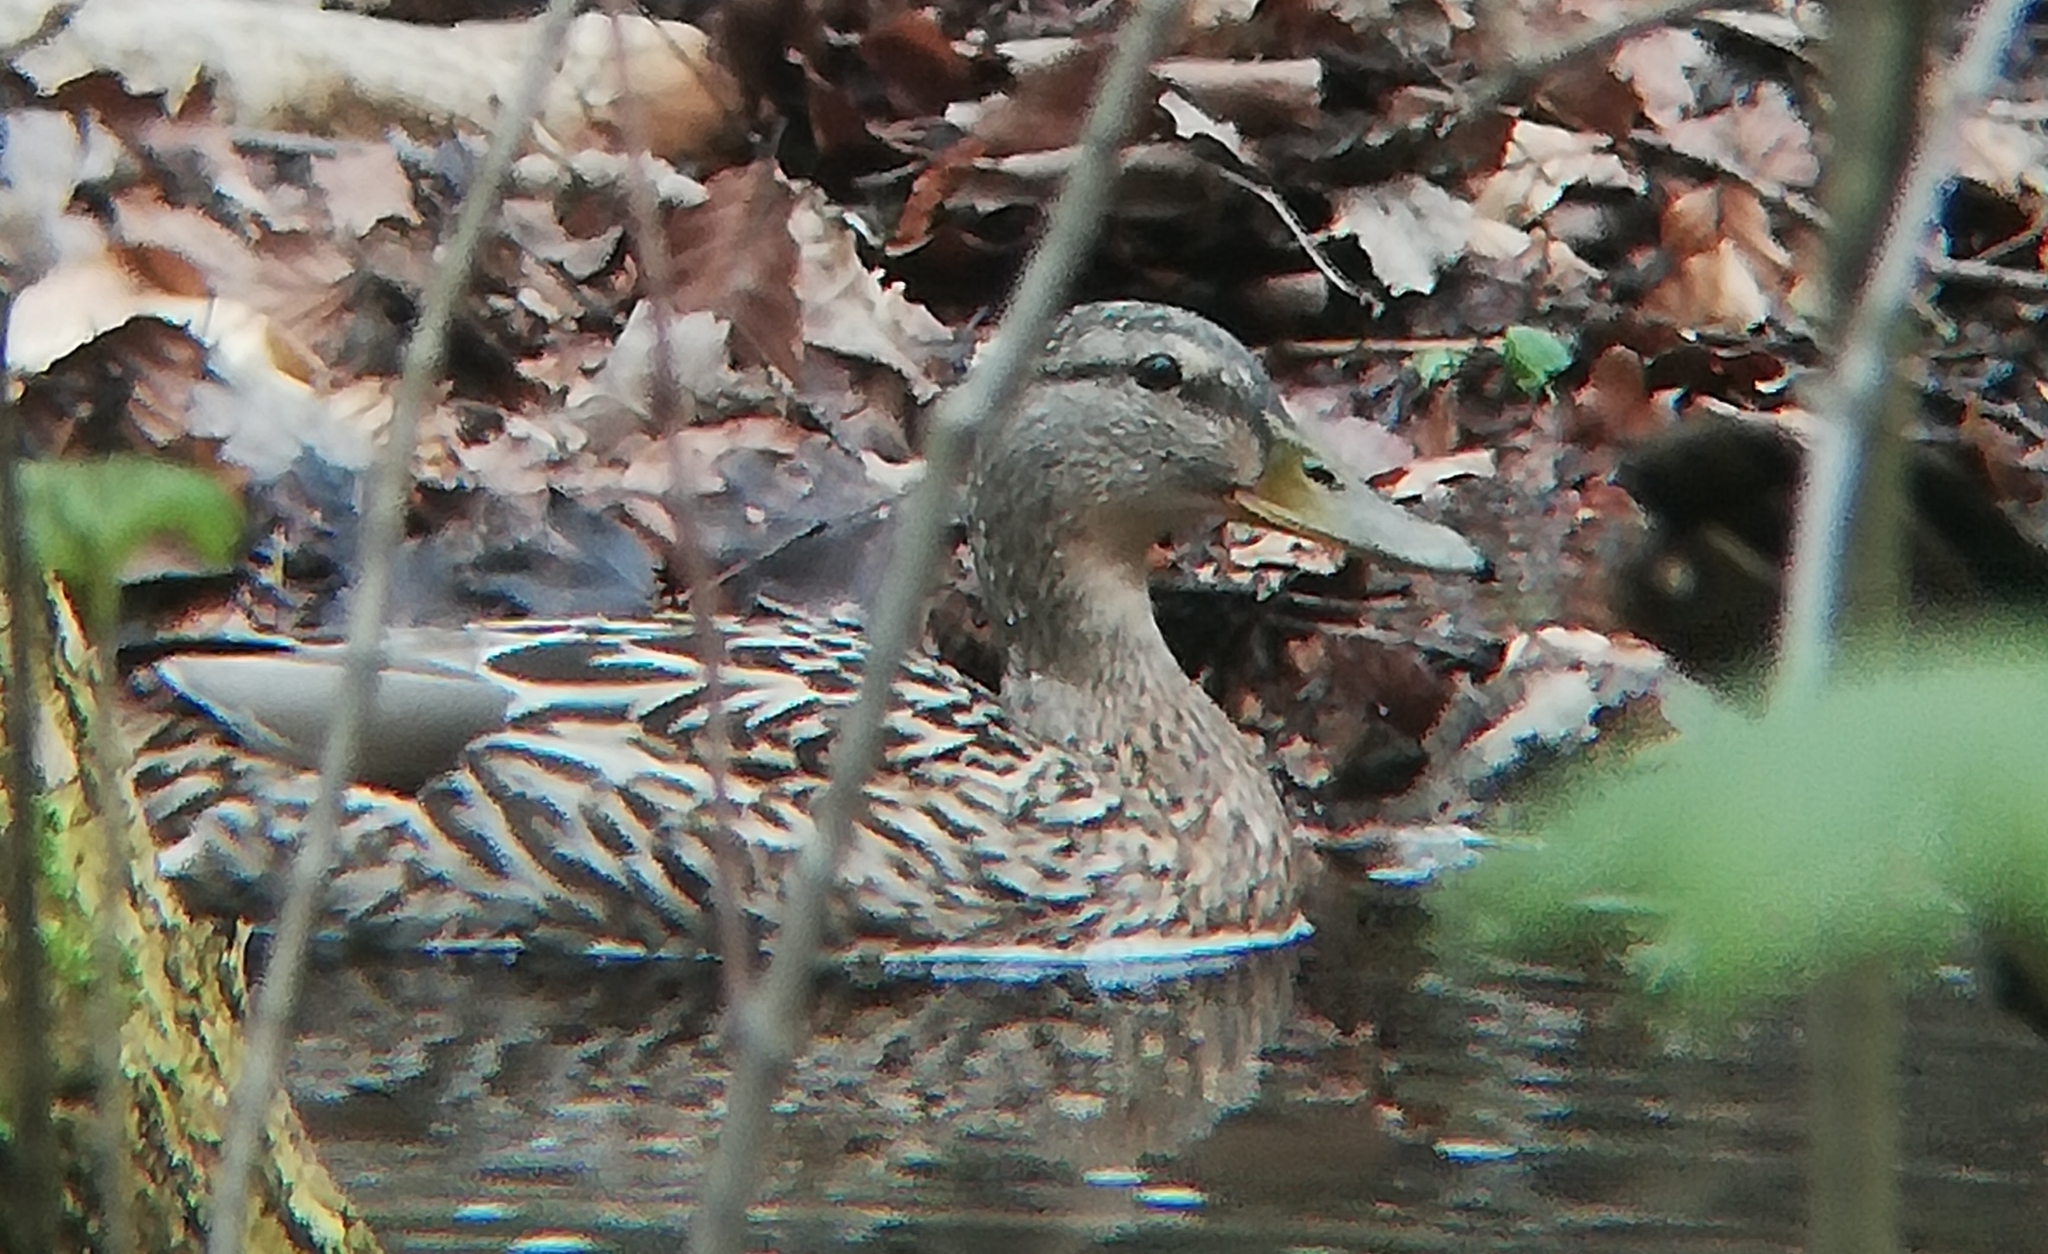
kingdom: Animalia
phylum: Chordata
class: Aves
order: Anseriformes
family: Anatidae
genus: Anas
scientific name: Anas platyrhynchos
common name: Mallard
